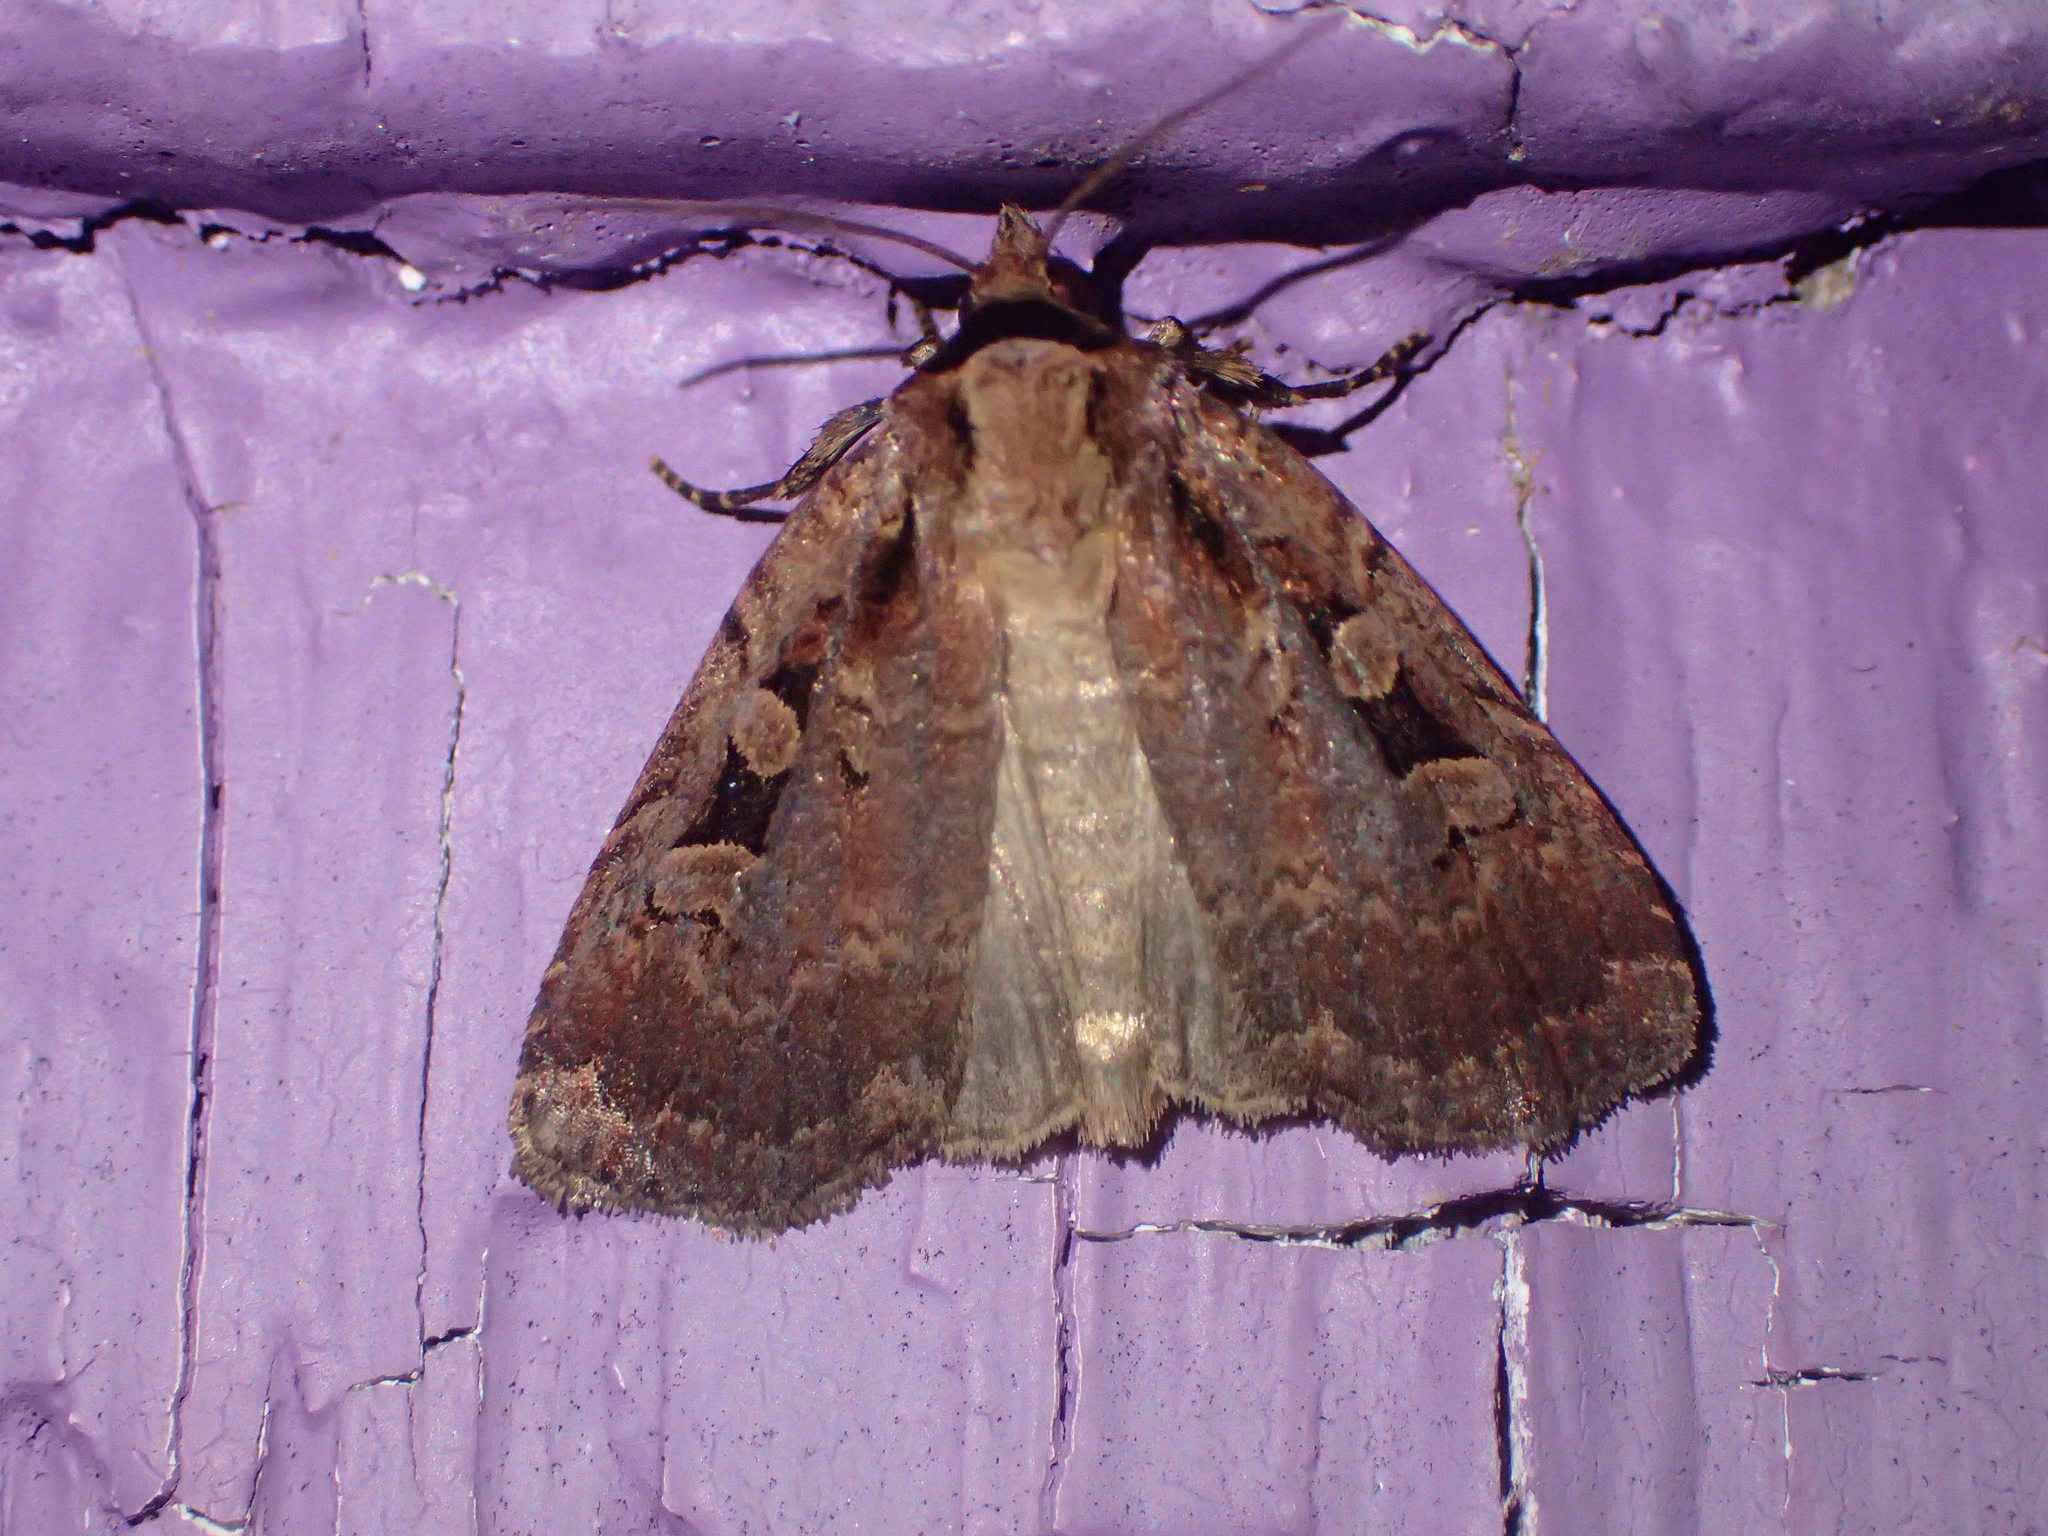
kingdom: Animalia
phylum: Arthropoda
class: Insecta
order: Lepidoptera
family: Noctuidae
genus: Eueretagrotis
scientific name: Eueretagrotis perattentus
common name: Two-spot dart moth
